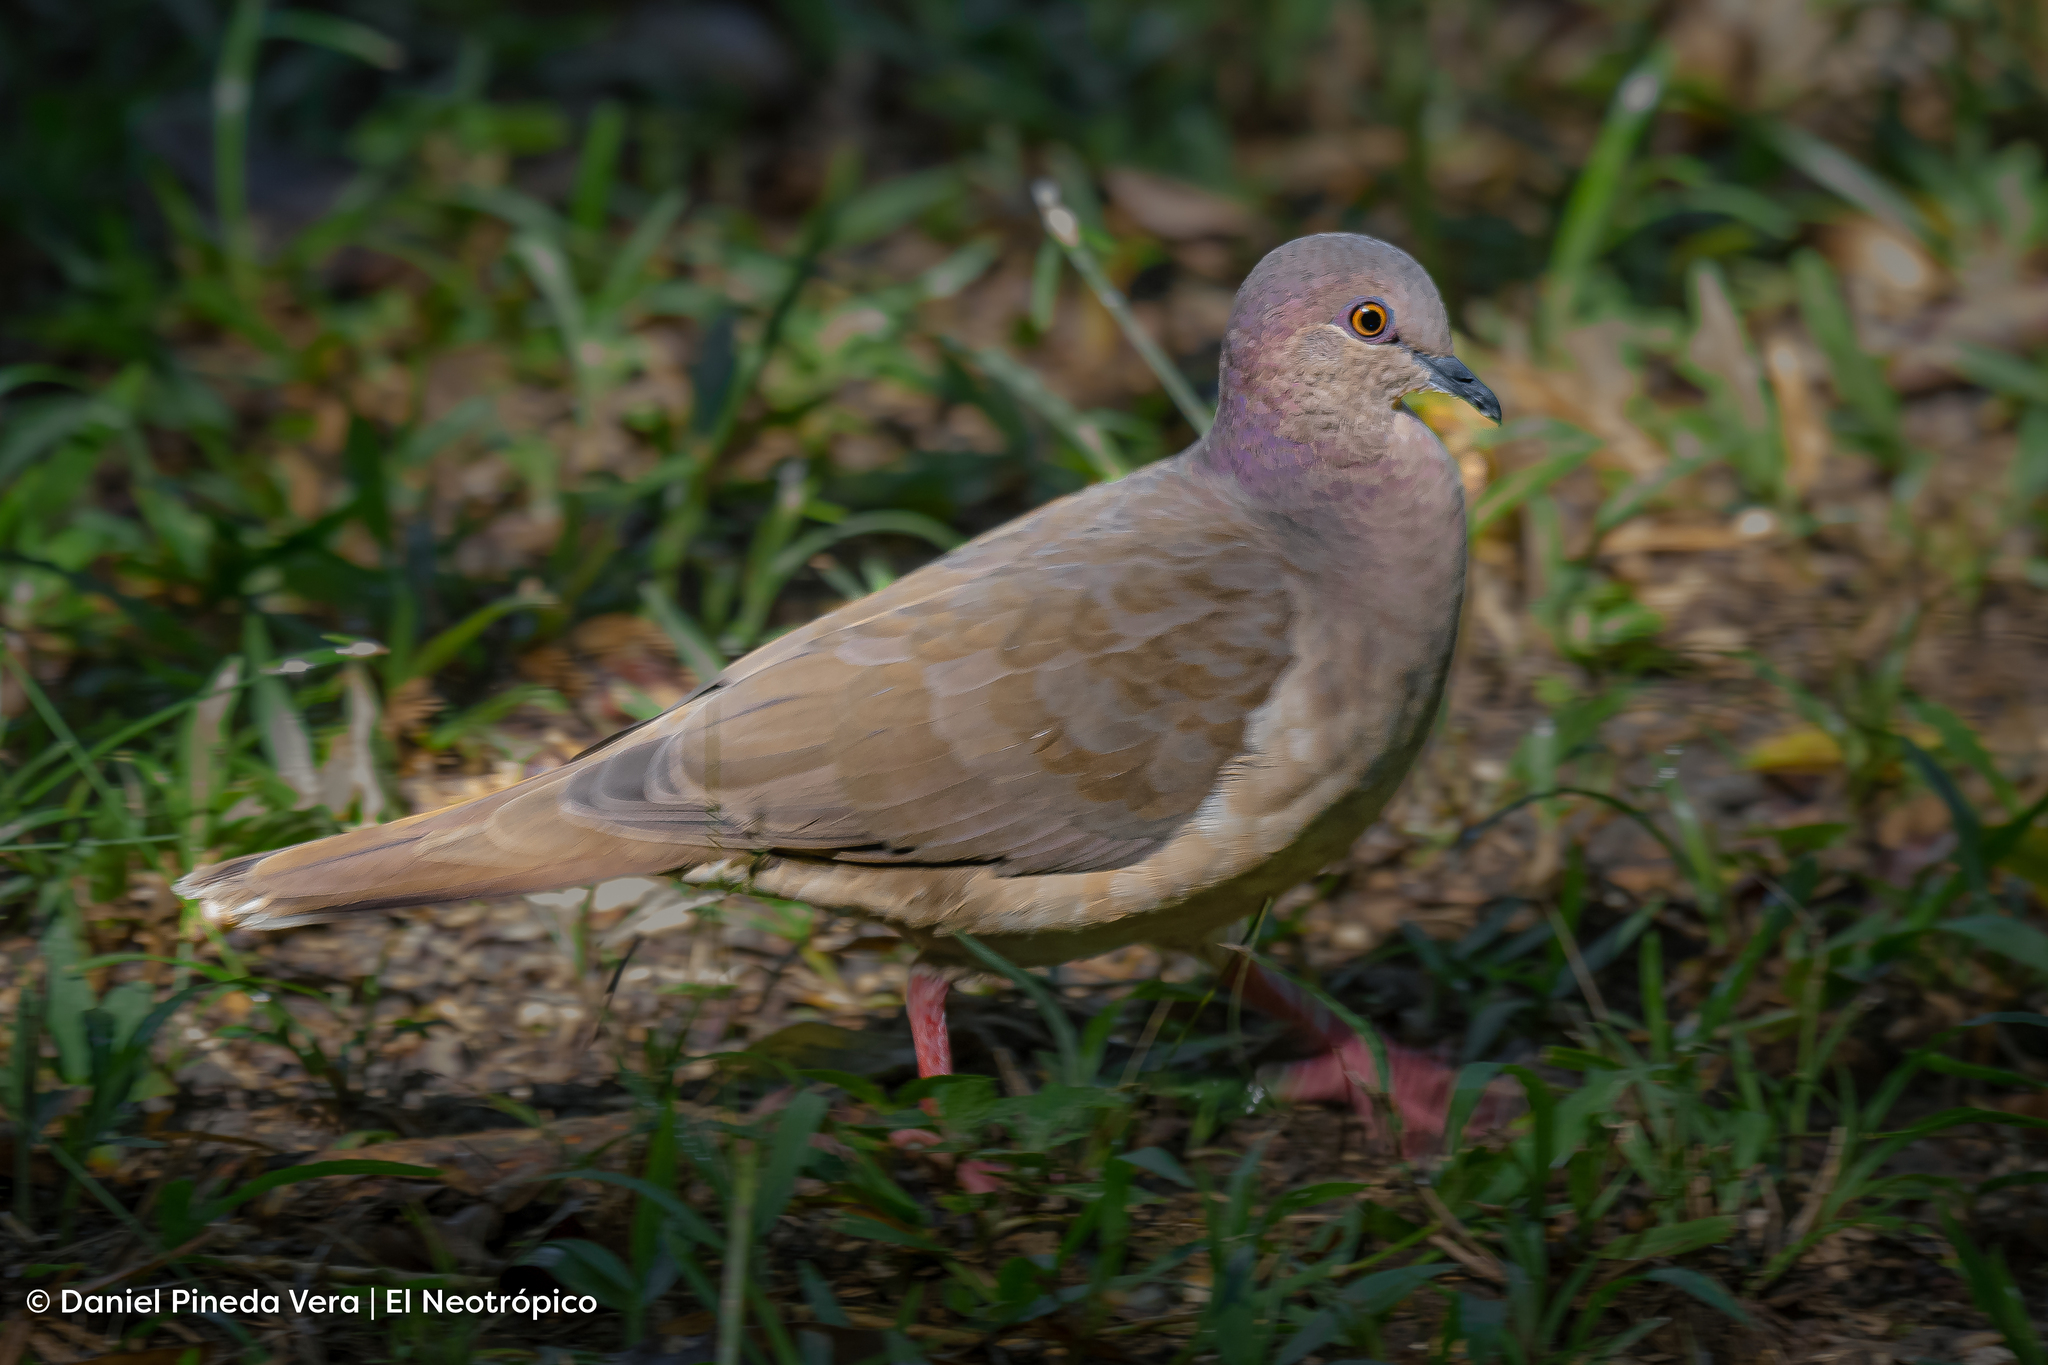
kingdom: Animalia
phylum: Chordata
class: Aves
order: Columbiformes
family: Columbidae
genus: Leptotila
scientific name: Leptotila verreauxi
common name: White-tipped dove
